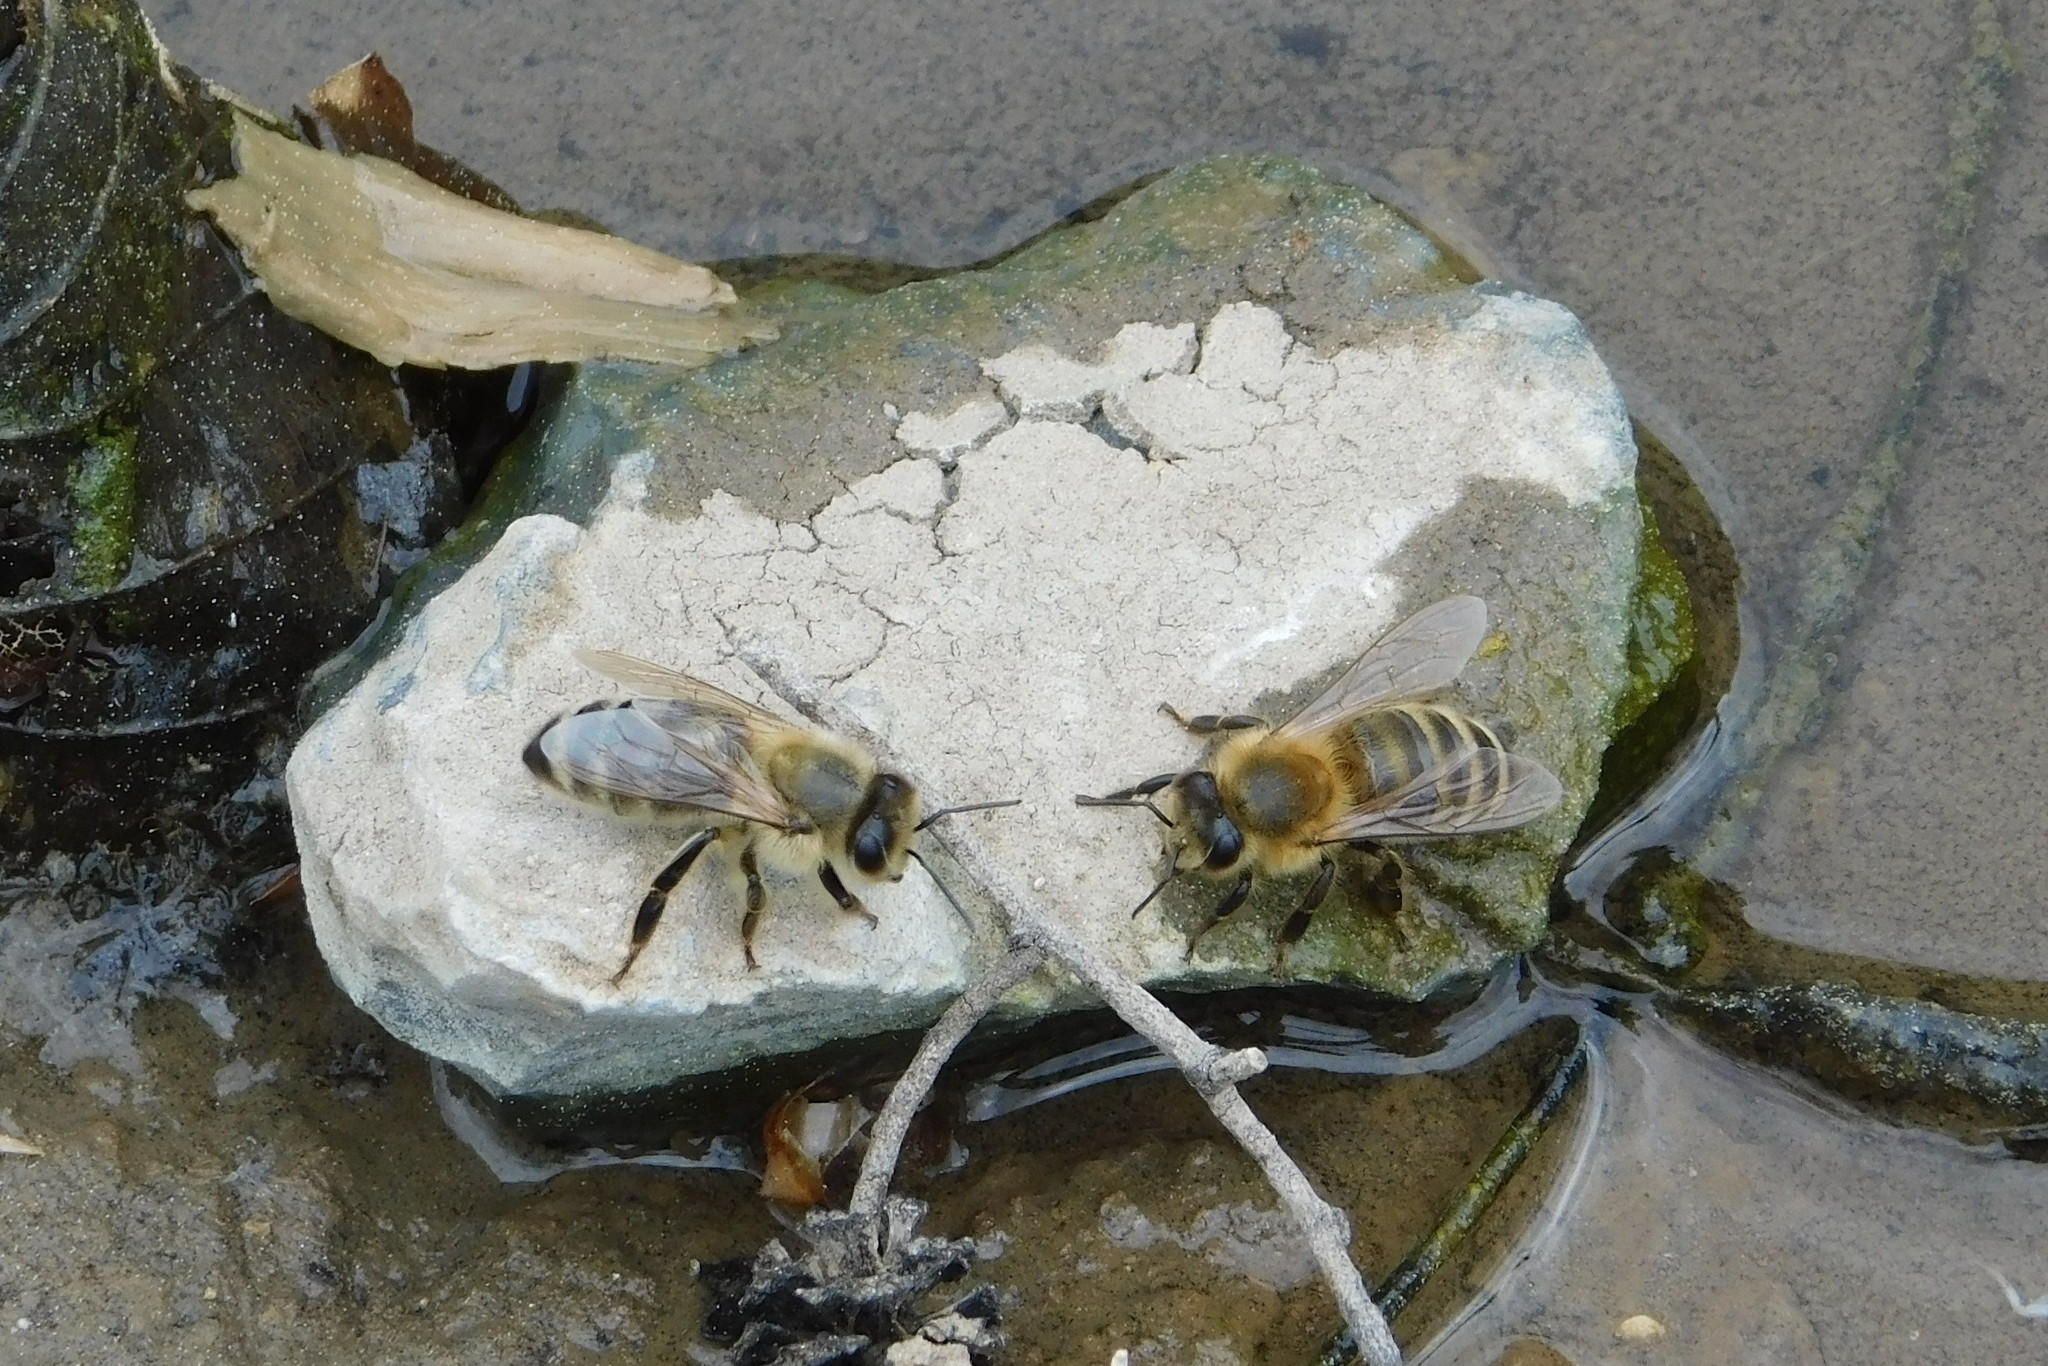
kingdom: Animalia
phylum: Arthropoda
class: Insecta
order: Hymenoptera
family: Apidae
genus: Apis
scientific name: Apis mellifera
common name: Honey bee
